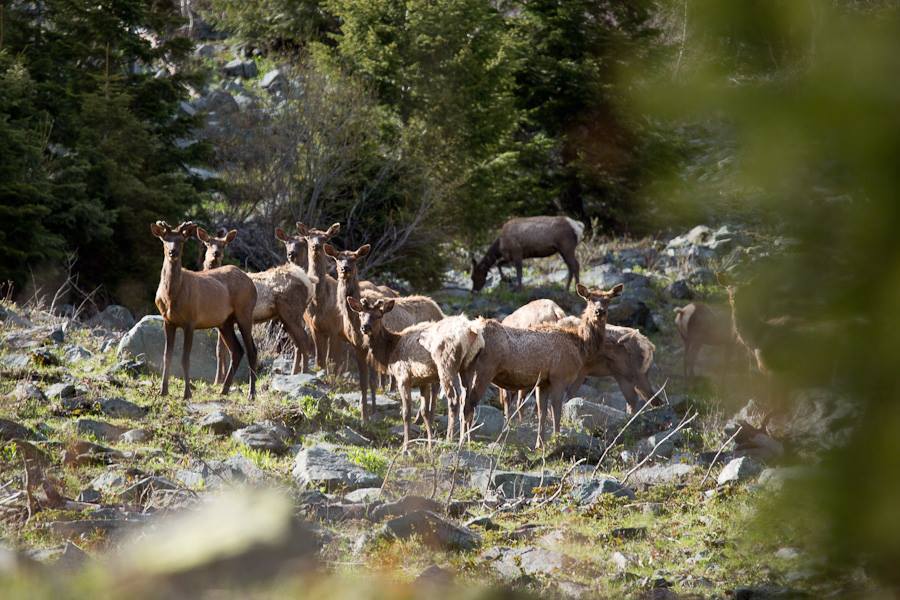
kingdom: Animalia
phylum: Chordata
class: Mammalia
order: Artiodactyla
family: Cervidae
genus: Cervus
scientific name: Cervus elaphus
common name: Red deer
